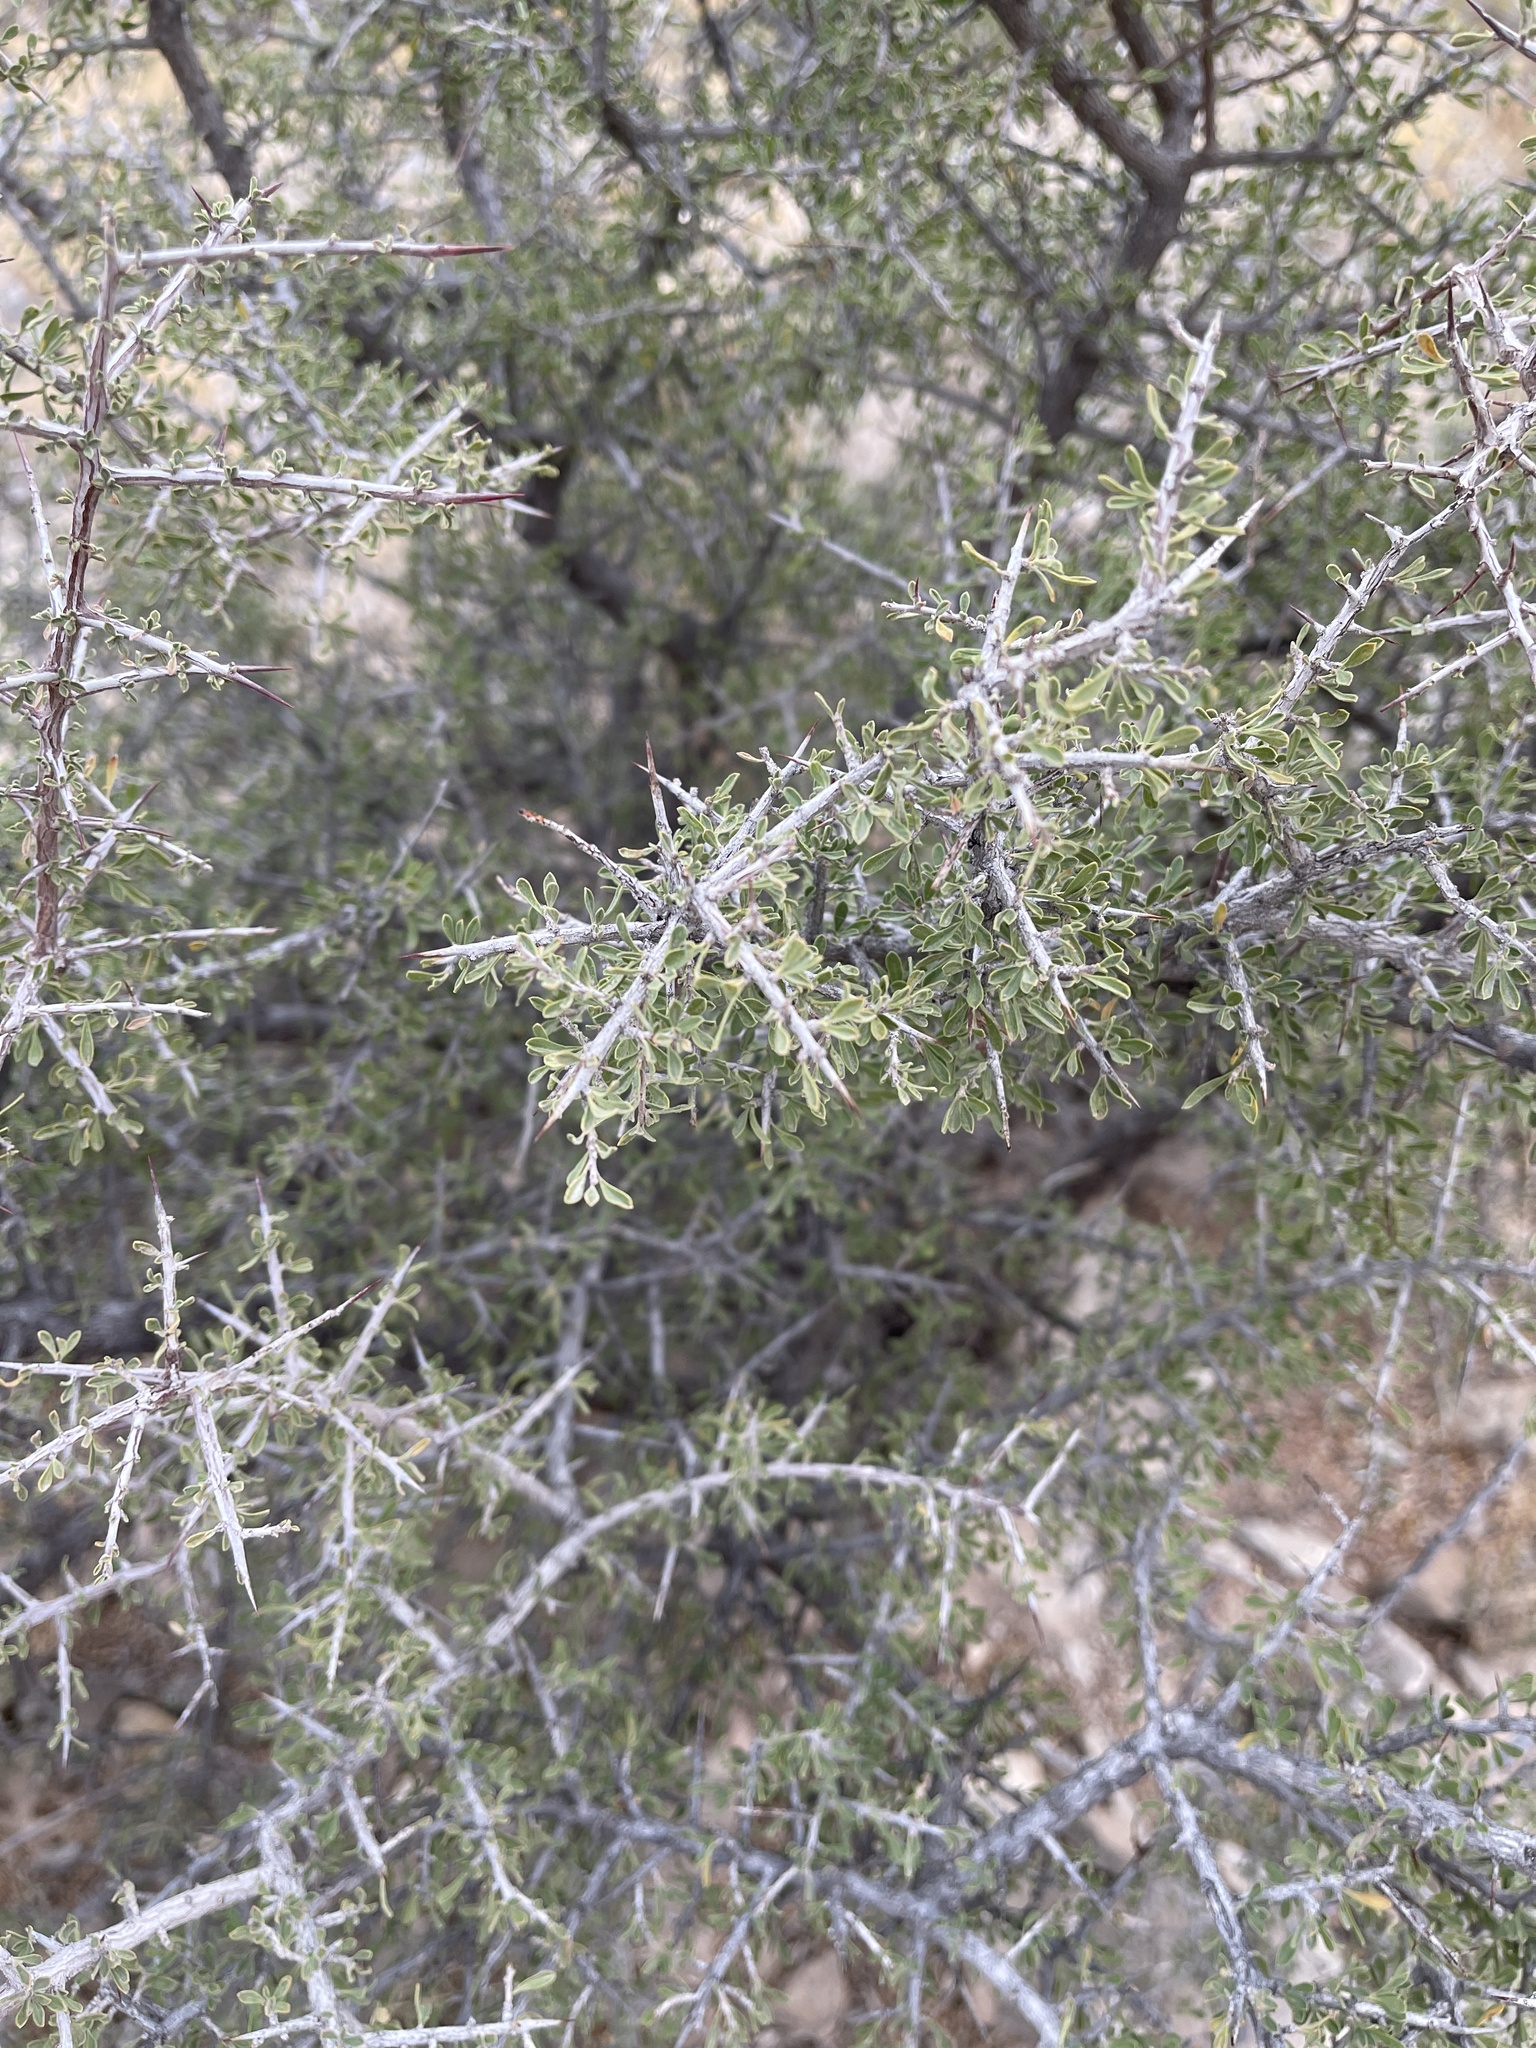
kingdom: Plantae
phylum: Tracheophyta
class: Magnoliopsida
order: Rosales
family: Rhamnaceae
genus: Condalia
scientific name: Condalia warnockii
